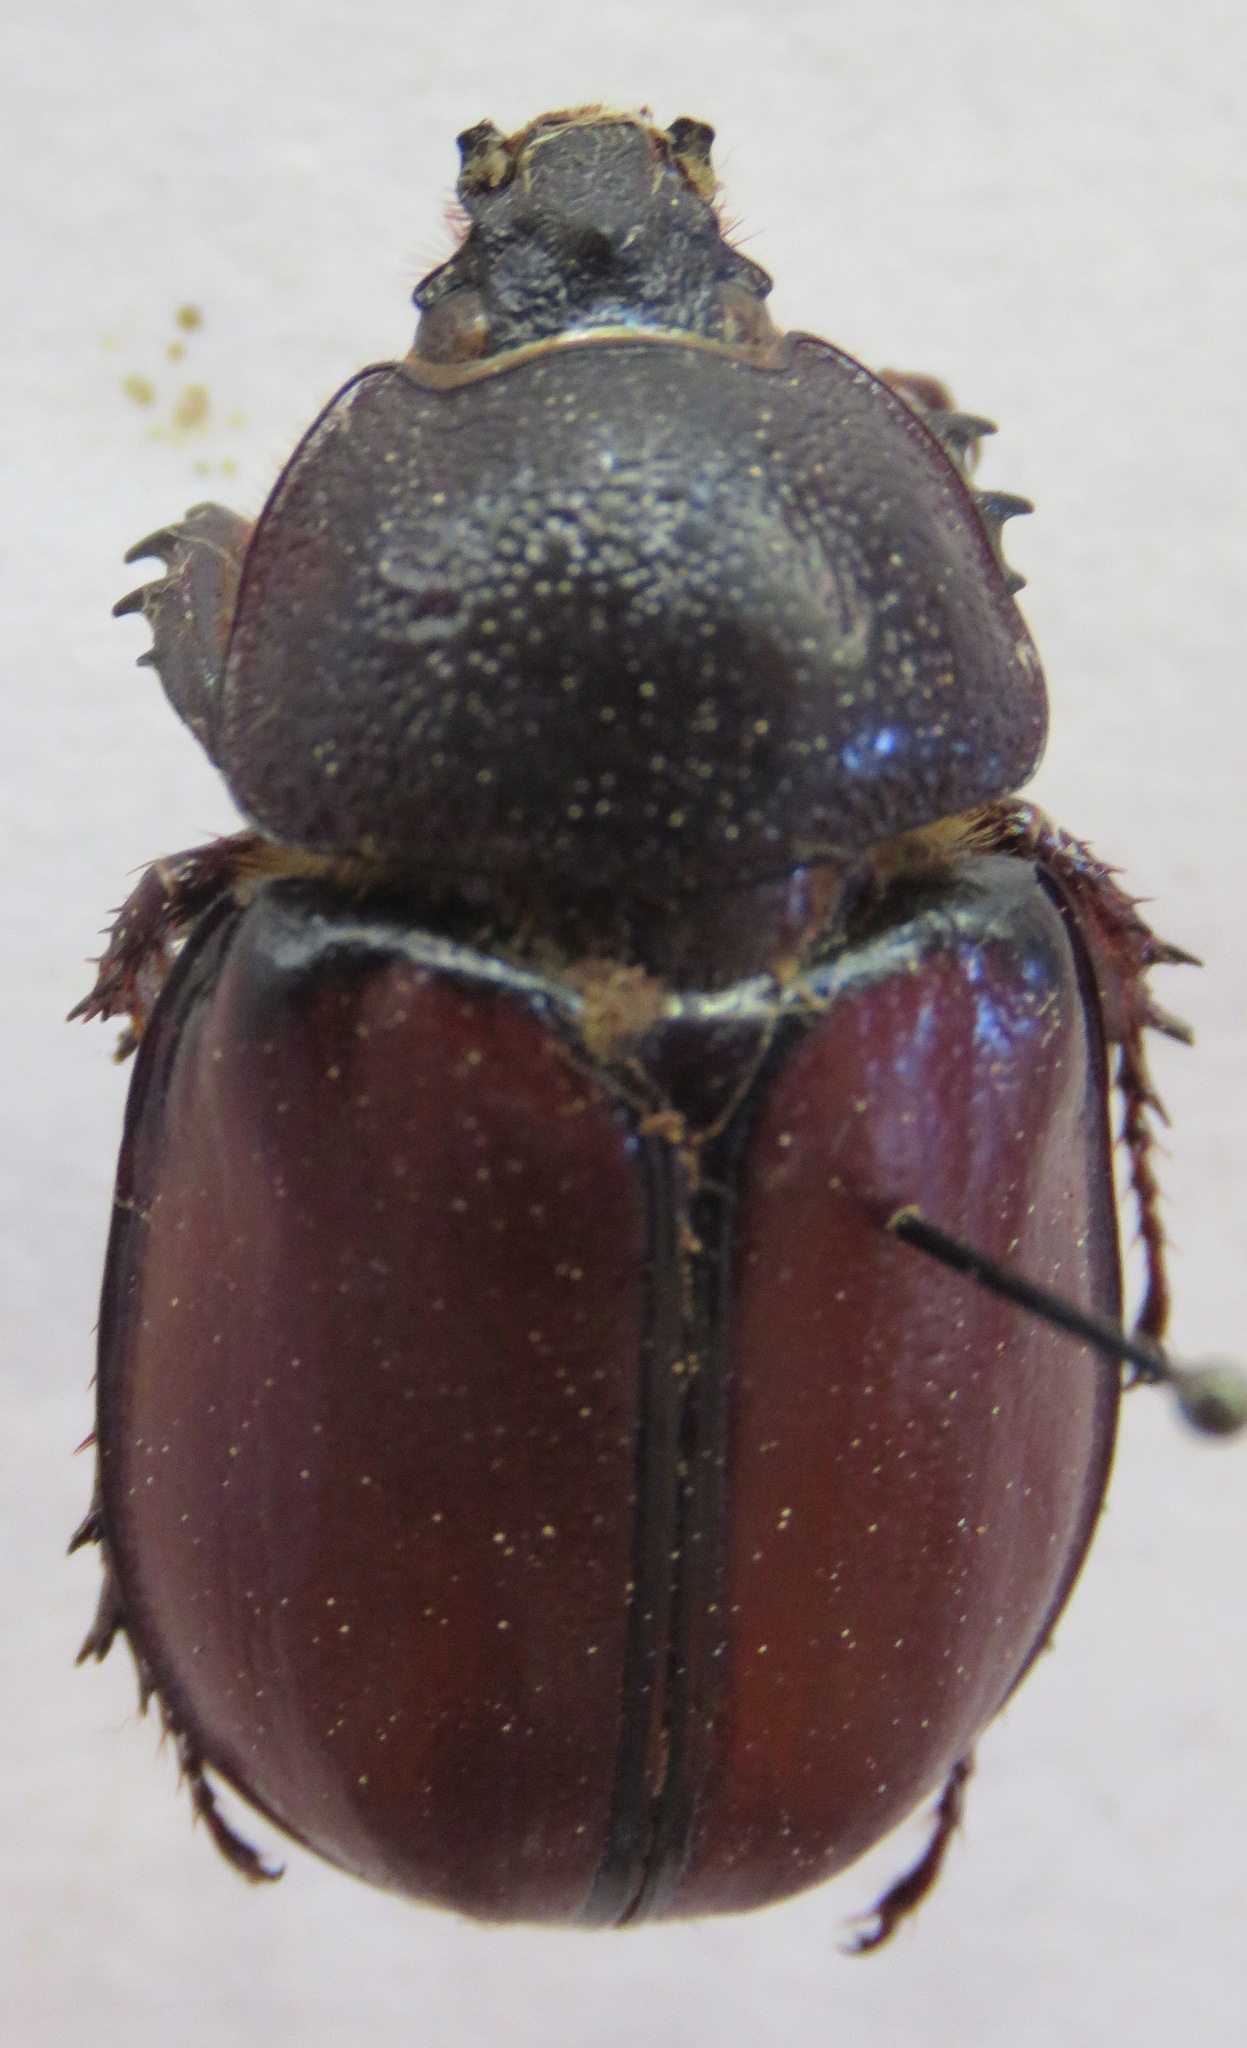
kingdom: Animalia
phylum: Arthropoda
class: Insecta
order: Coleoptera
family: Scarabaeidae
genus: Golofa
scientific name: Golofa pusilla
